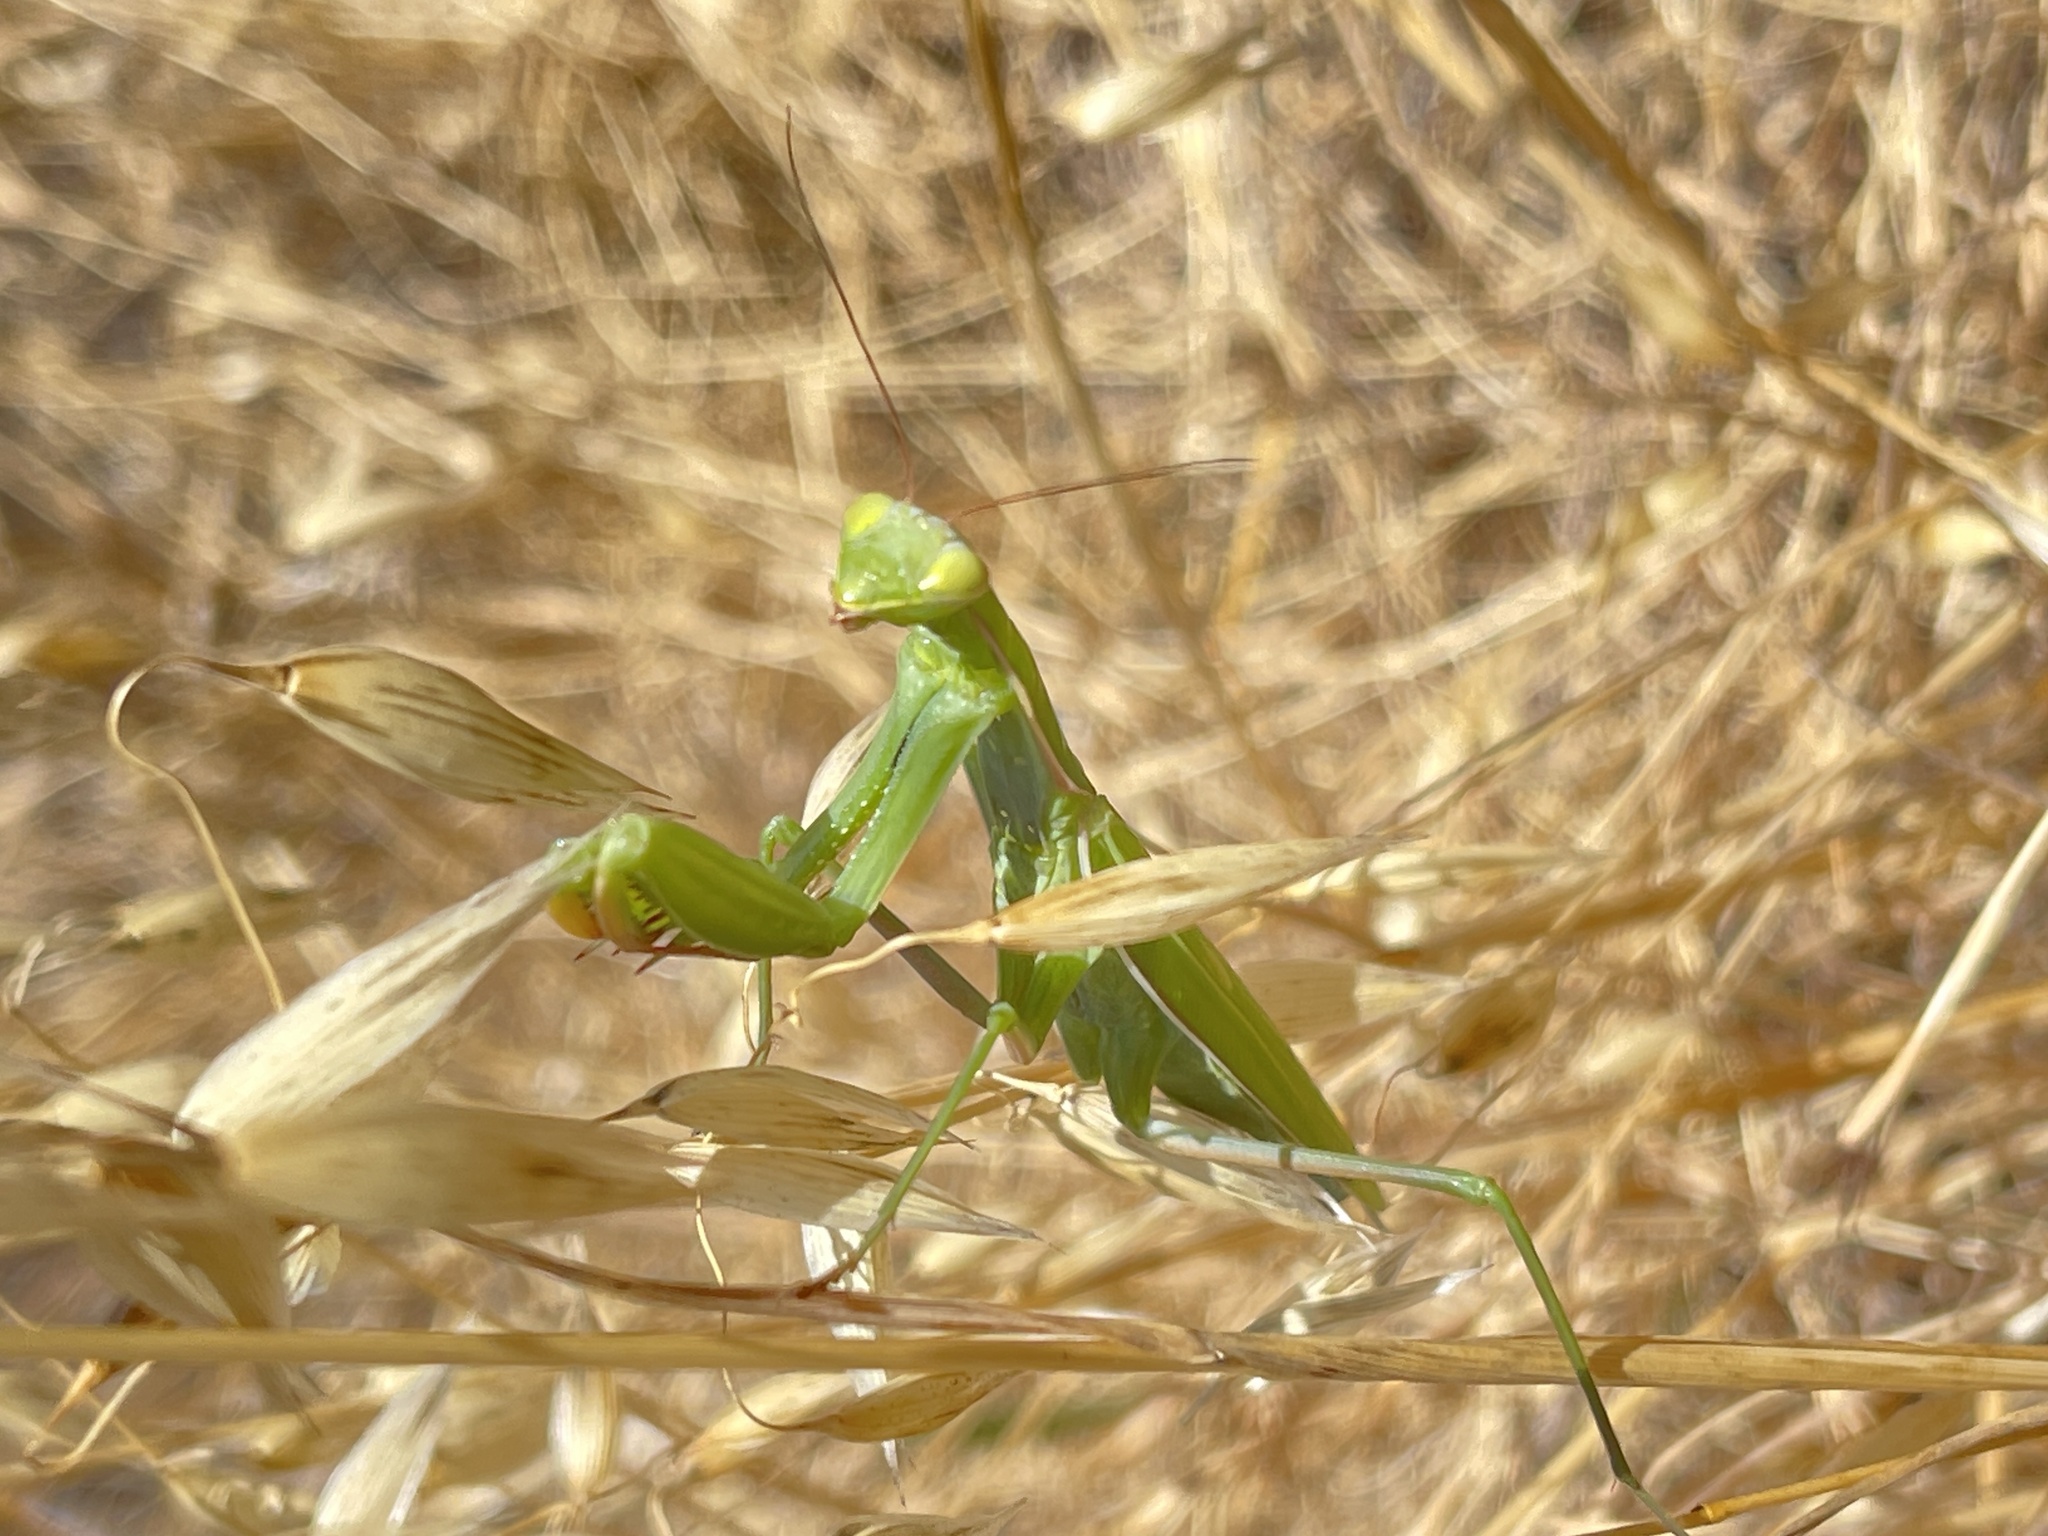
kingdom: Animalia
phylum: Arthropoda
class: Insecta
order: Mantodea
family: Mantidae
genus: Mantis
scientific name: Mantis religiosa
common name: Praying mantis
